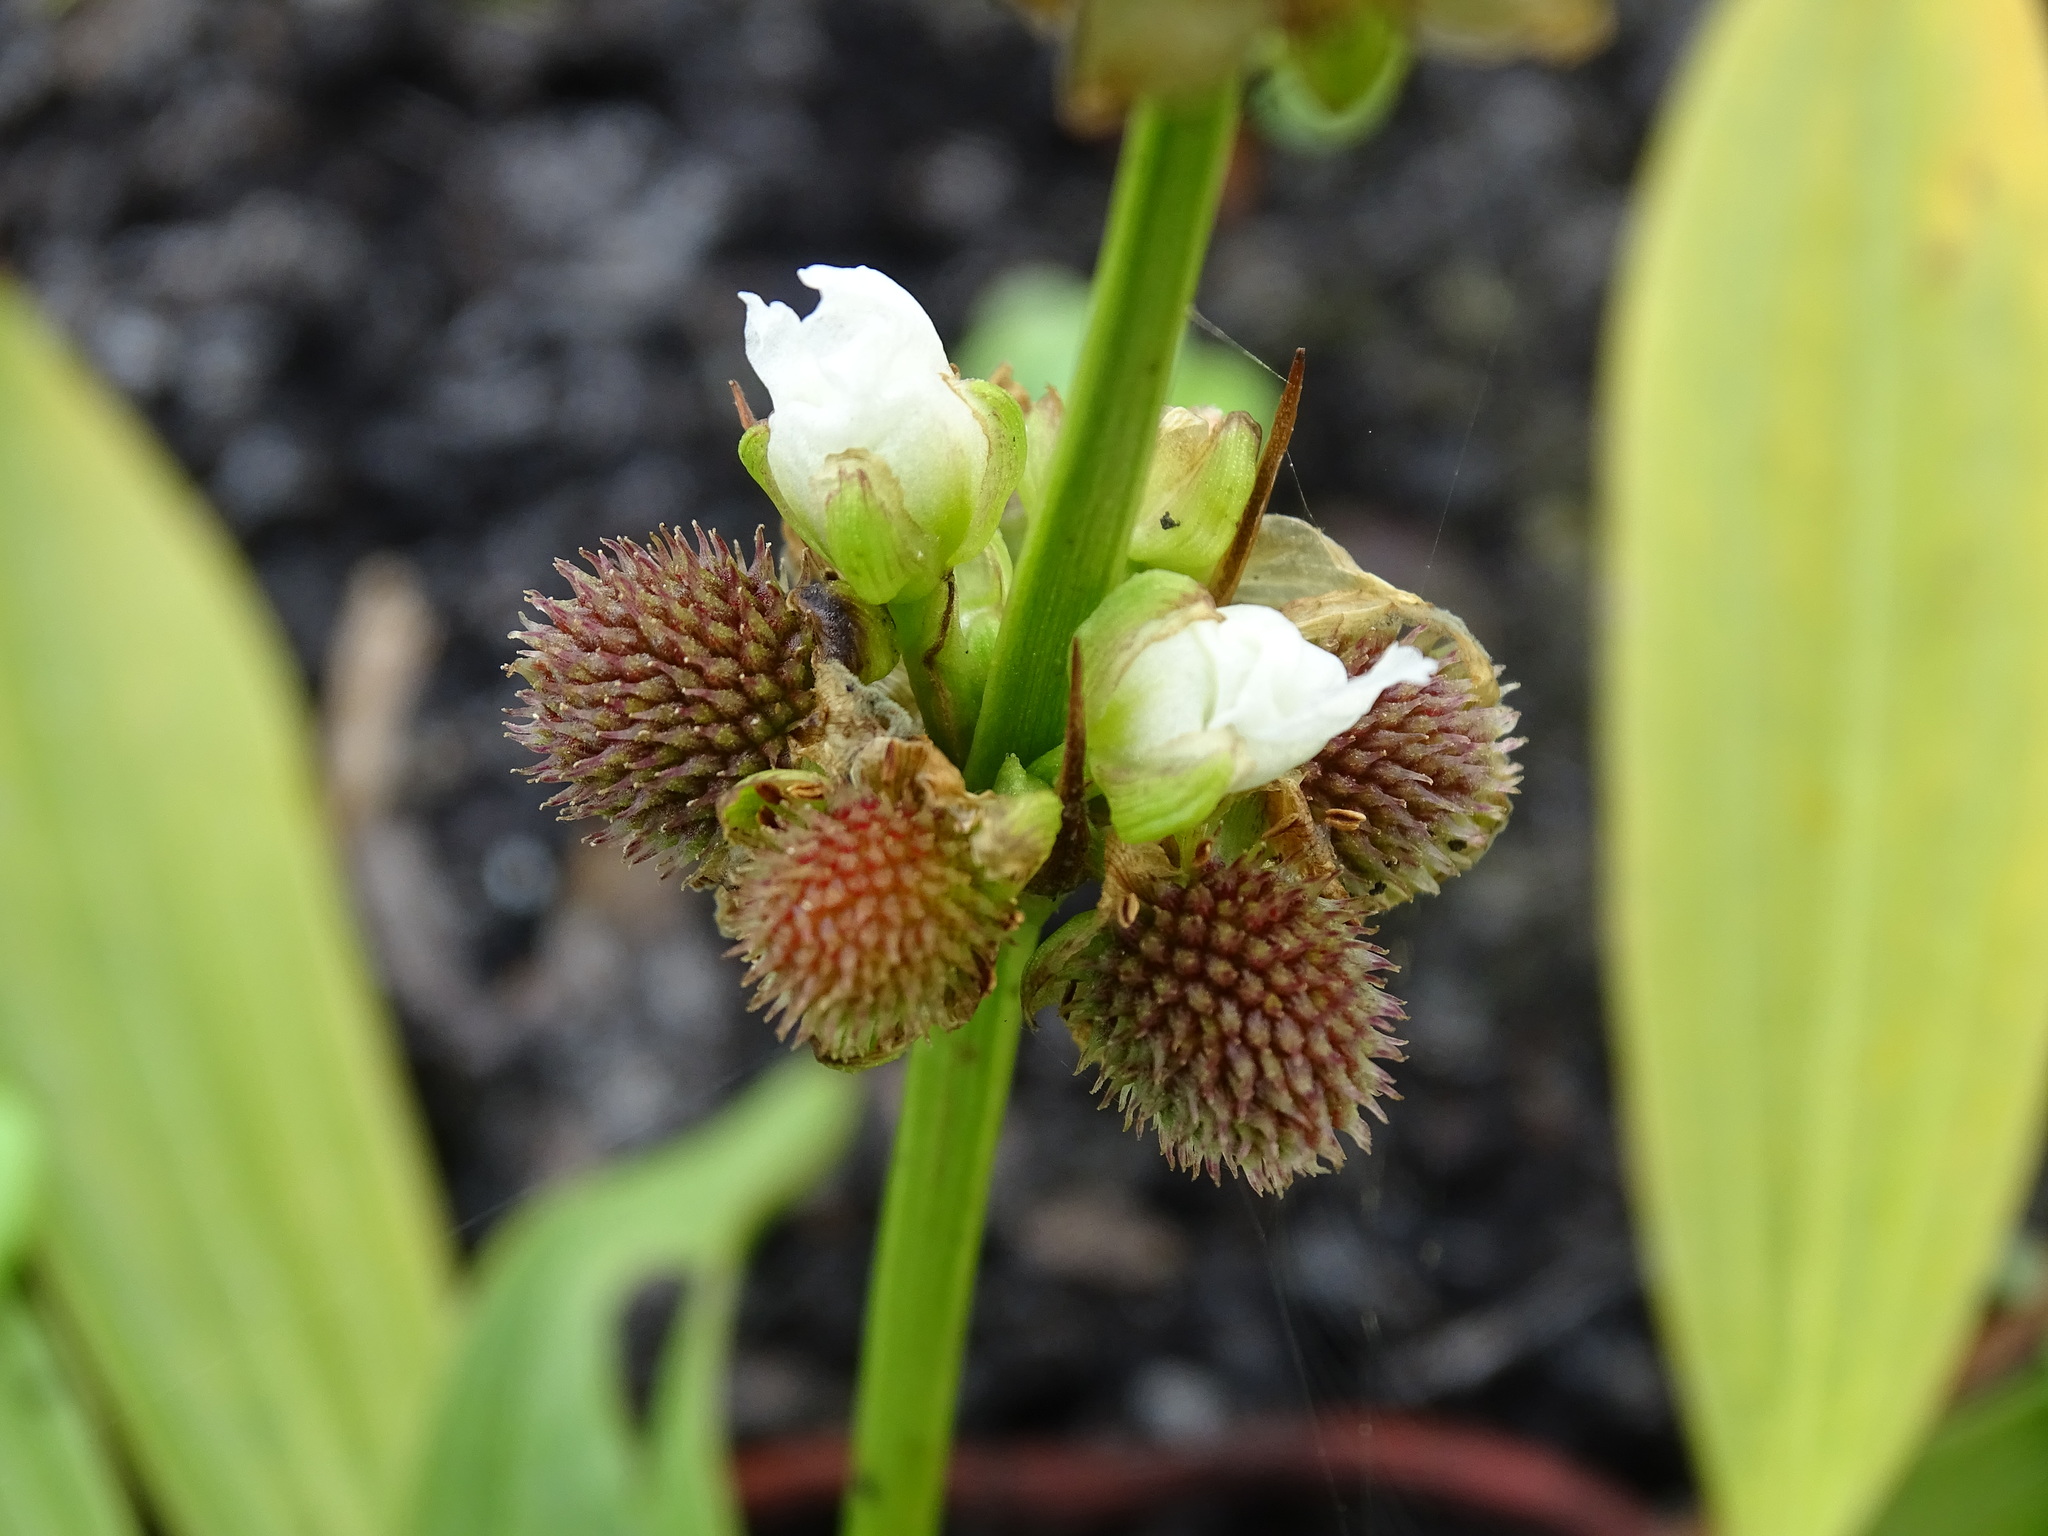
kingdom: Plantae
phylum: Tracheophyta
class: Liliopsida
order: Alismatales
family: Alismataceae
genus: Aquarius
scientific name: Aquarius subulatus
